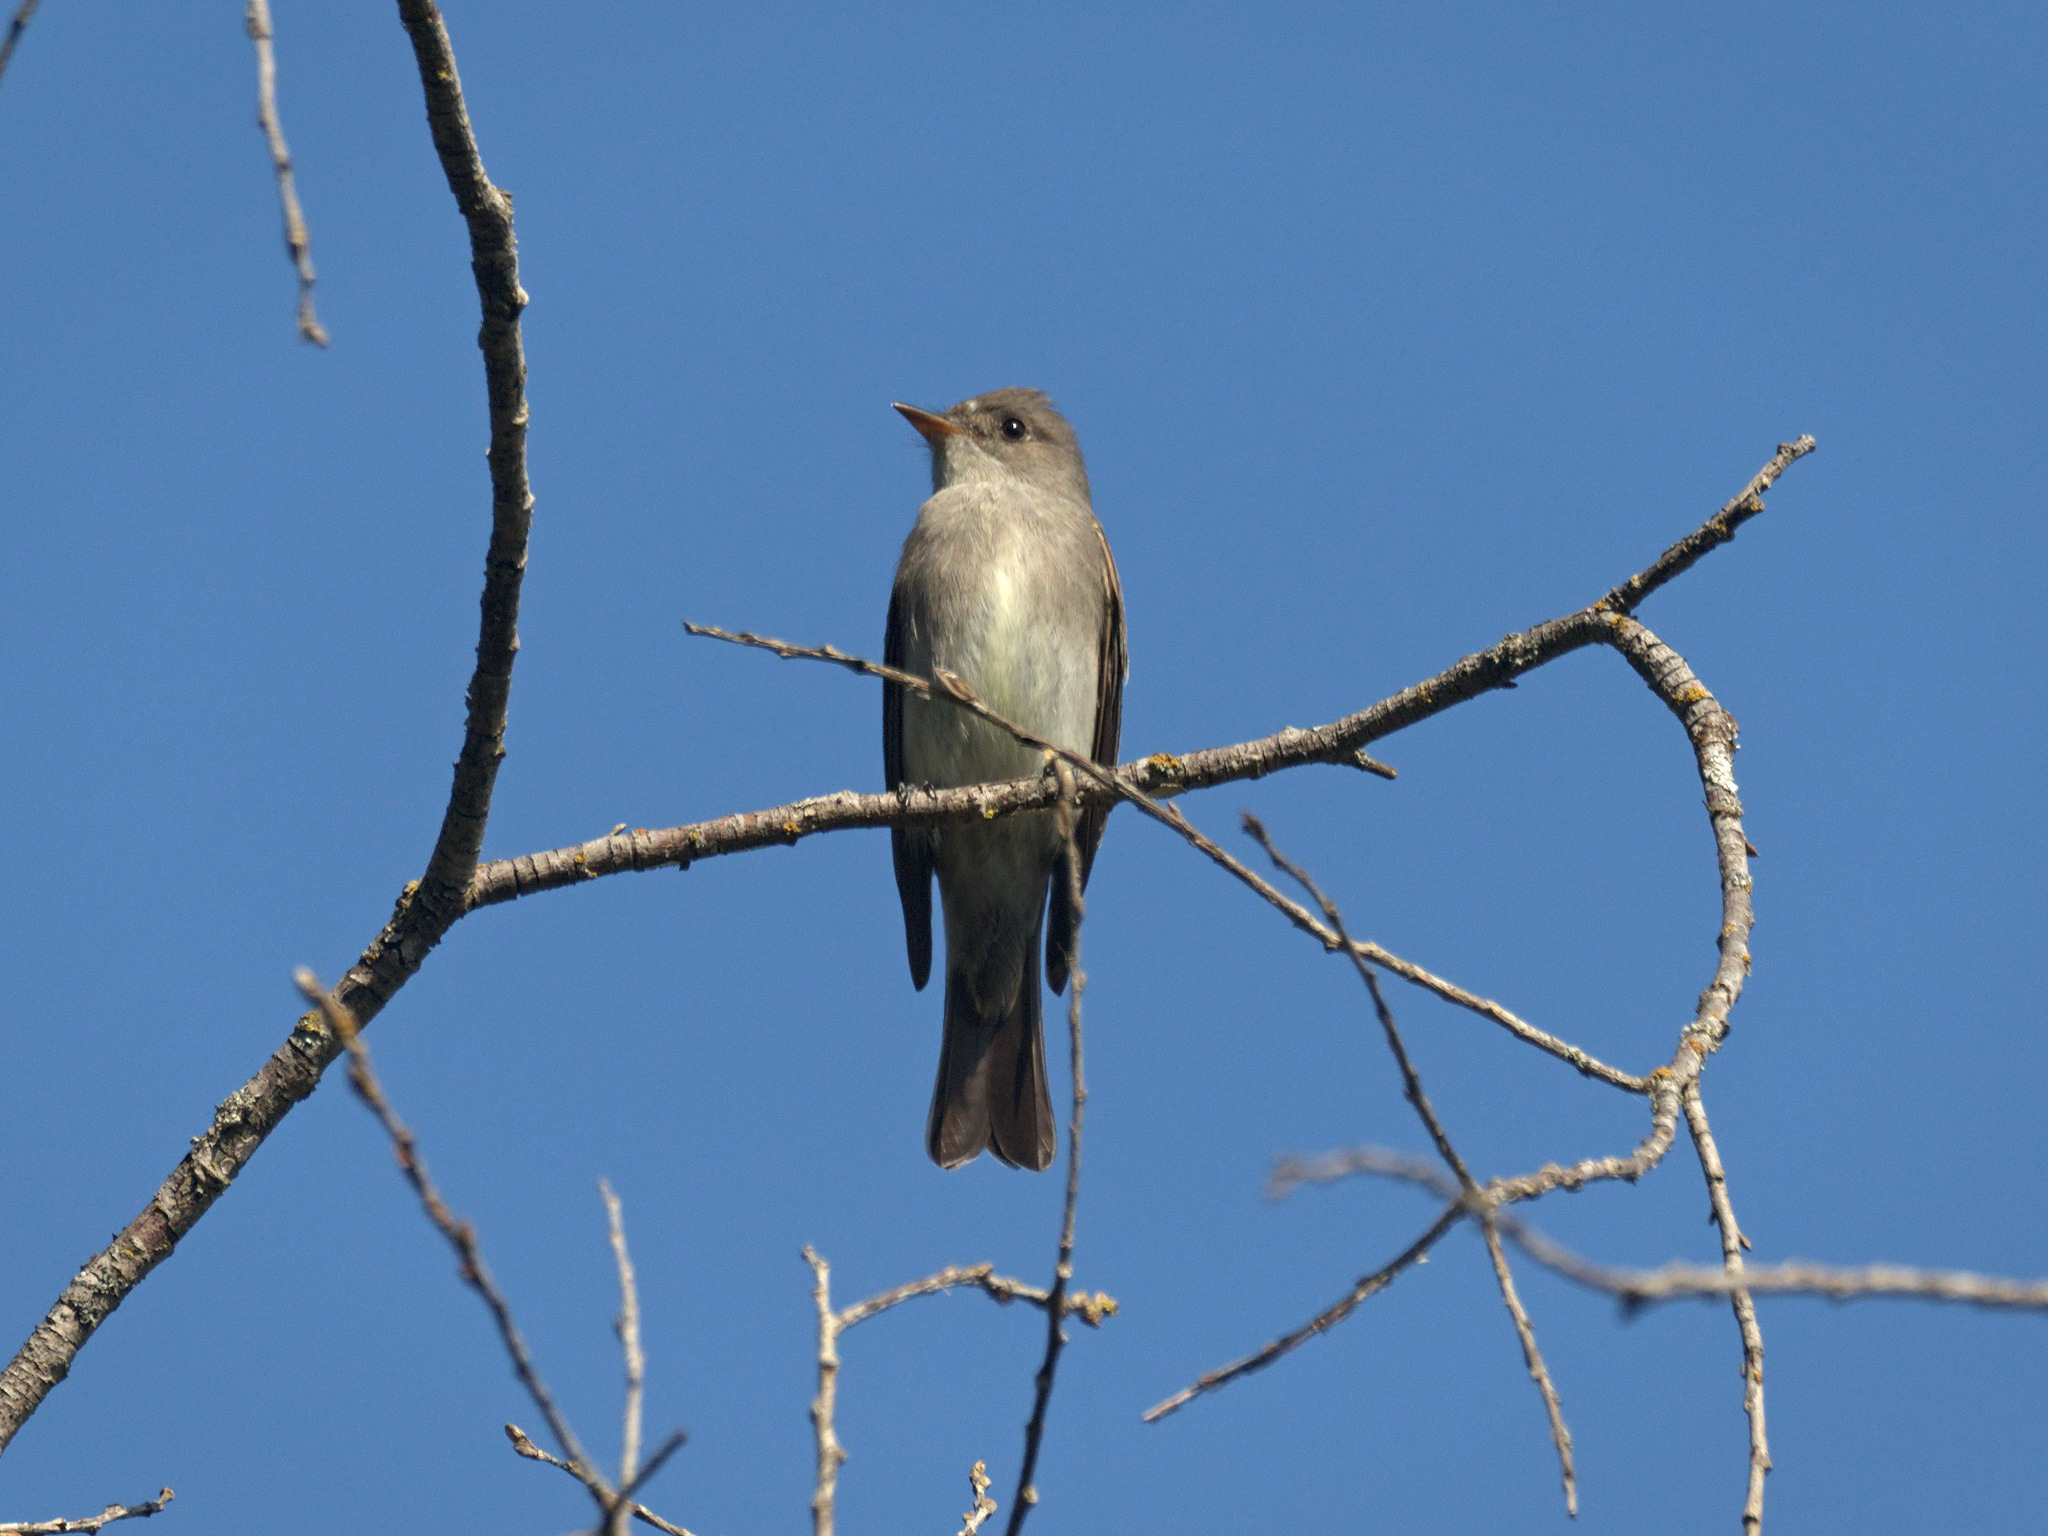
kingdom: Animalia
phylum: Chordata
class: Aves
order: Passeriformes
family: Tyrannidae
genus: Contopus
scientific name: Contopus sordidulus
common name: Western wood-pewee
